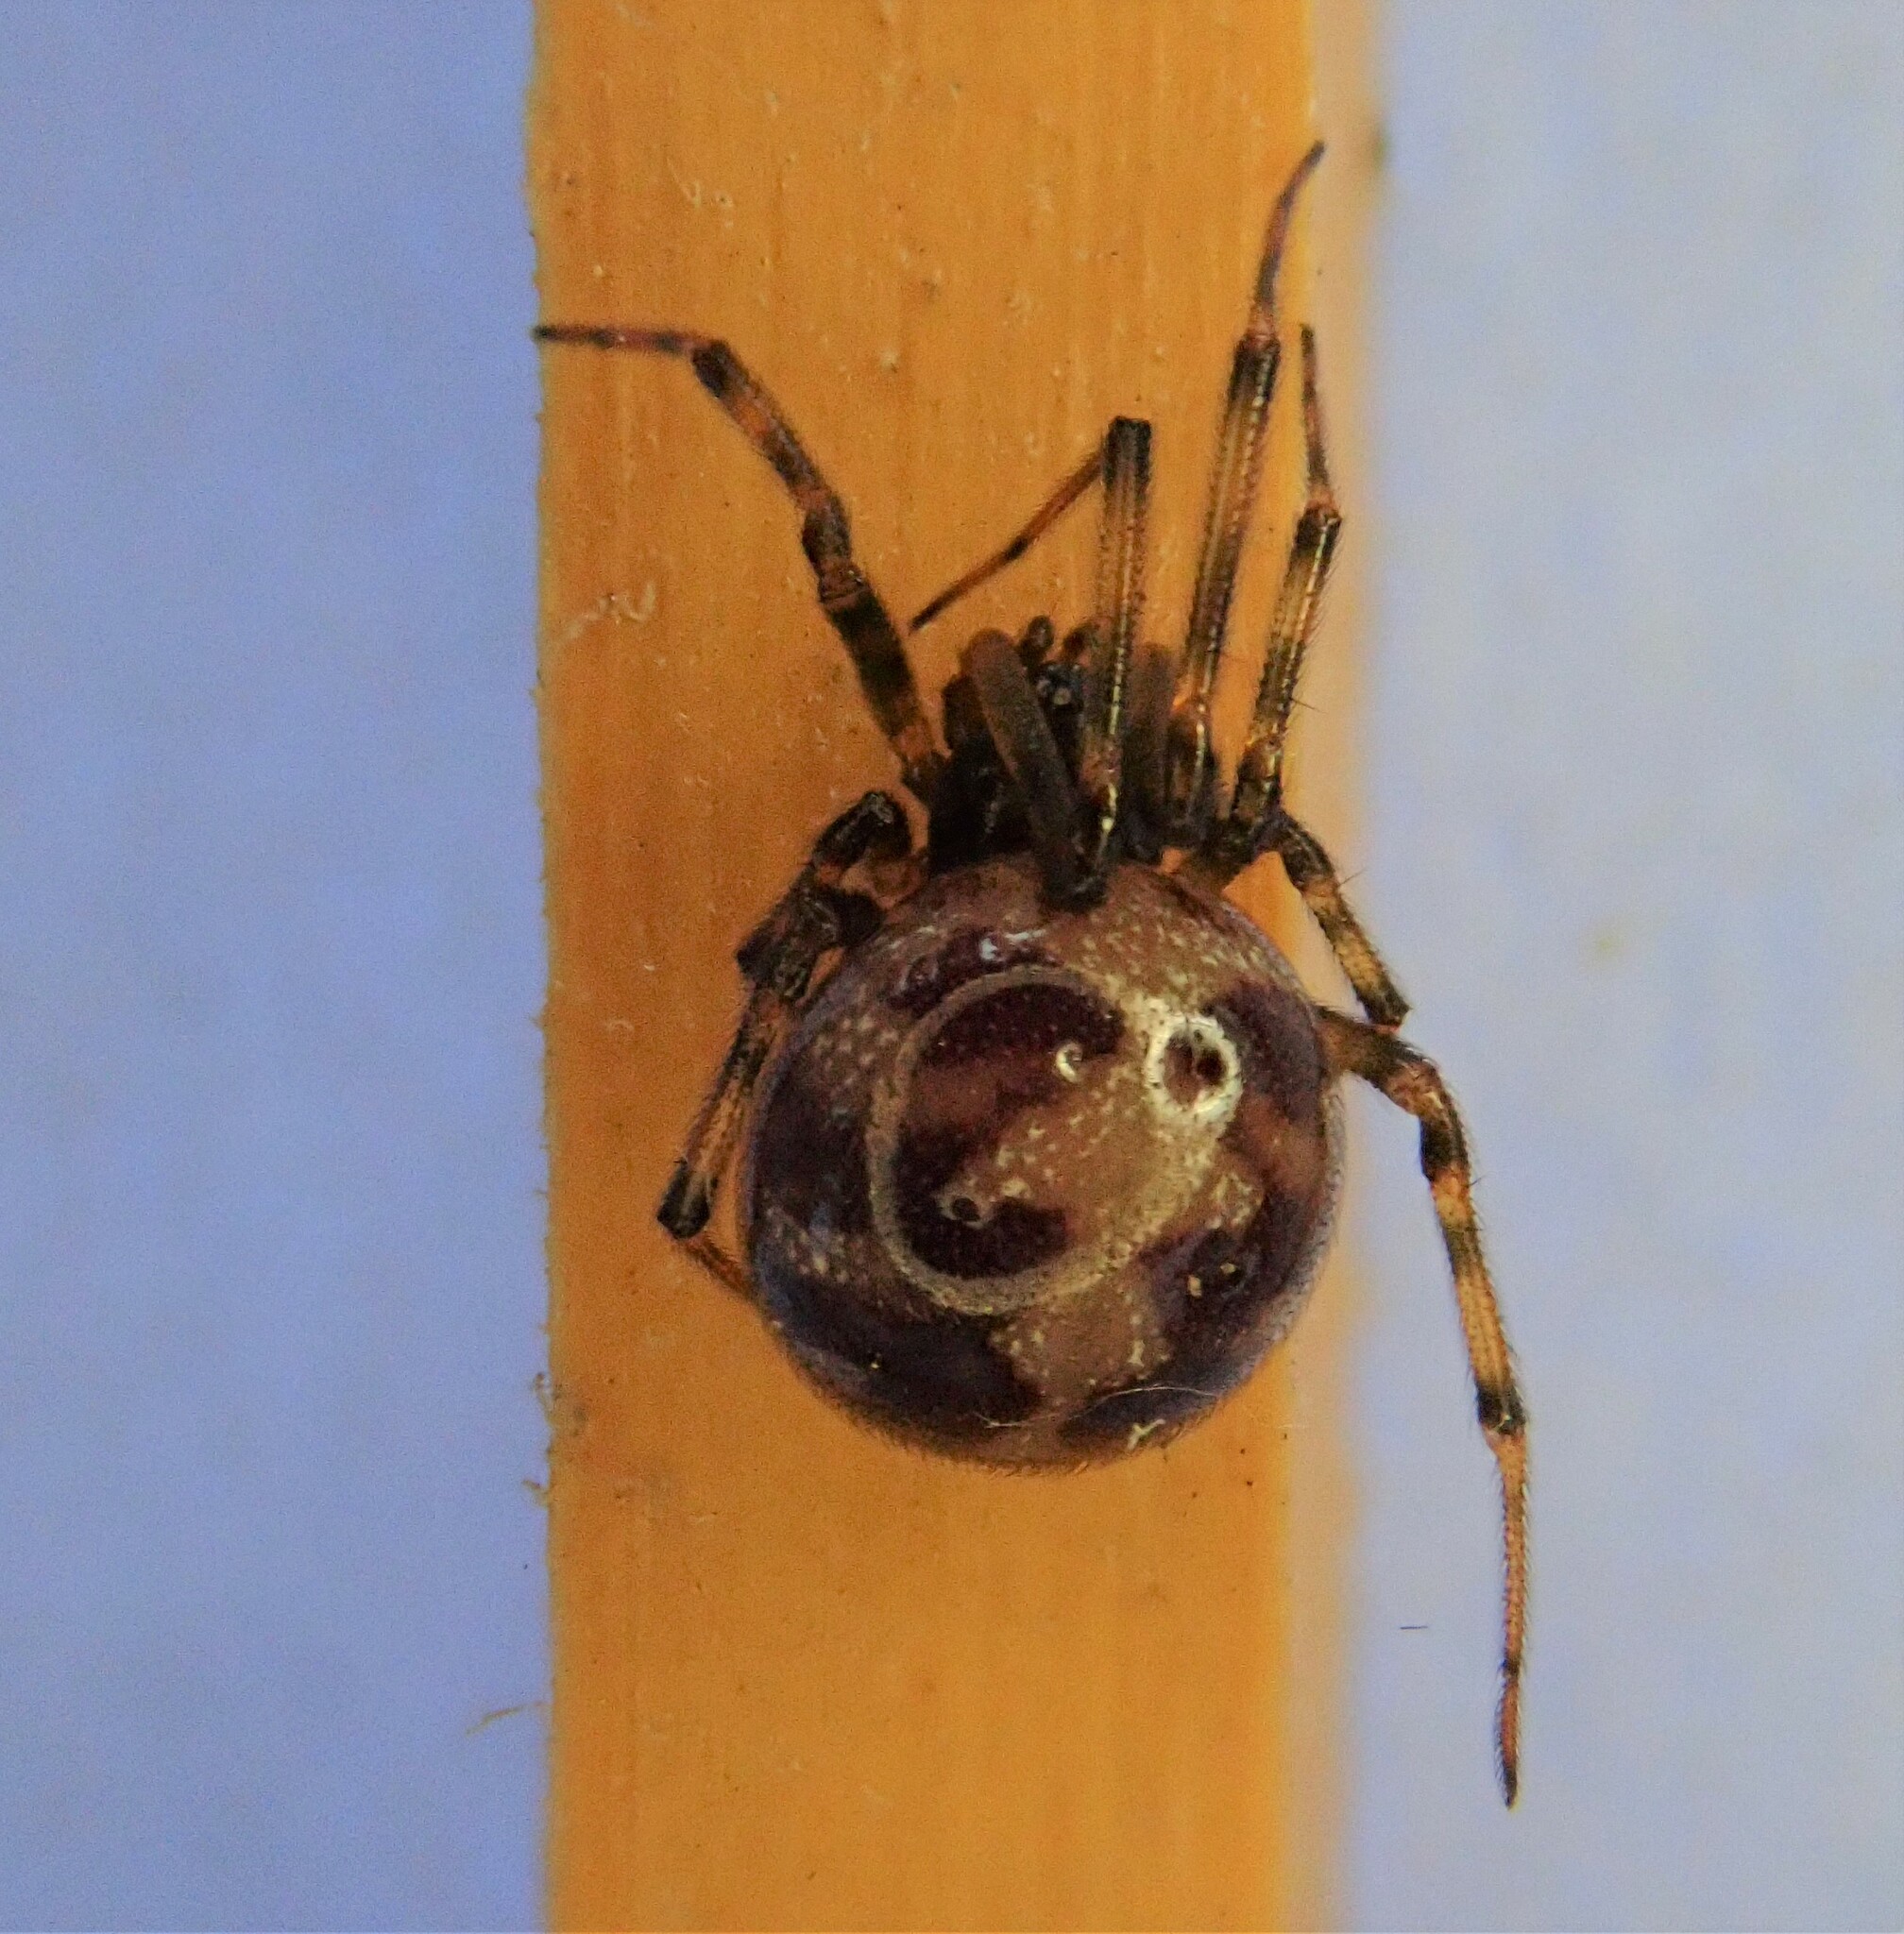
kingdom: Animalia
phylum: Arthropoda
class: Arachnida
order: Araneae
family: Theridiidae
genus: Steatoda
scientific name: Steatoda triangulosa
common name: Triangulate bud spider
